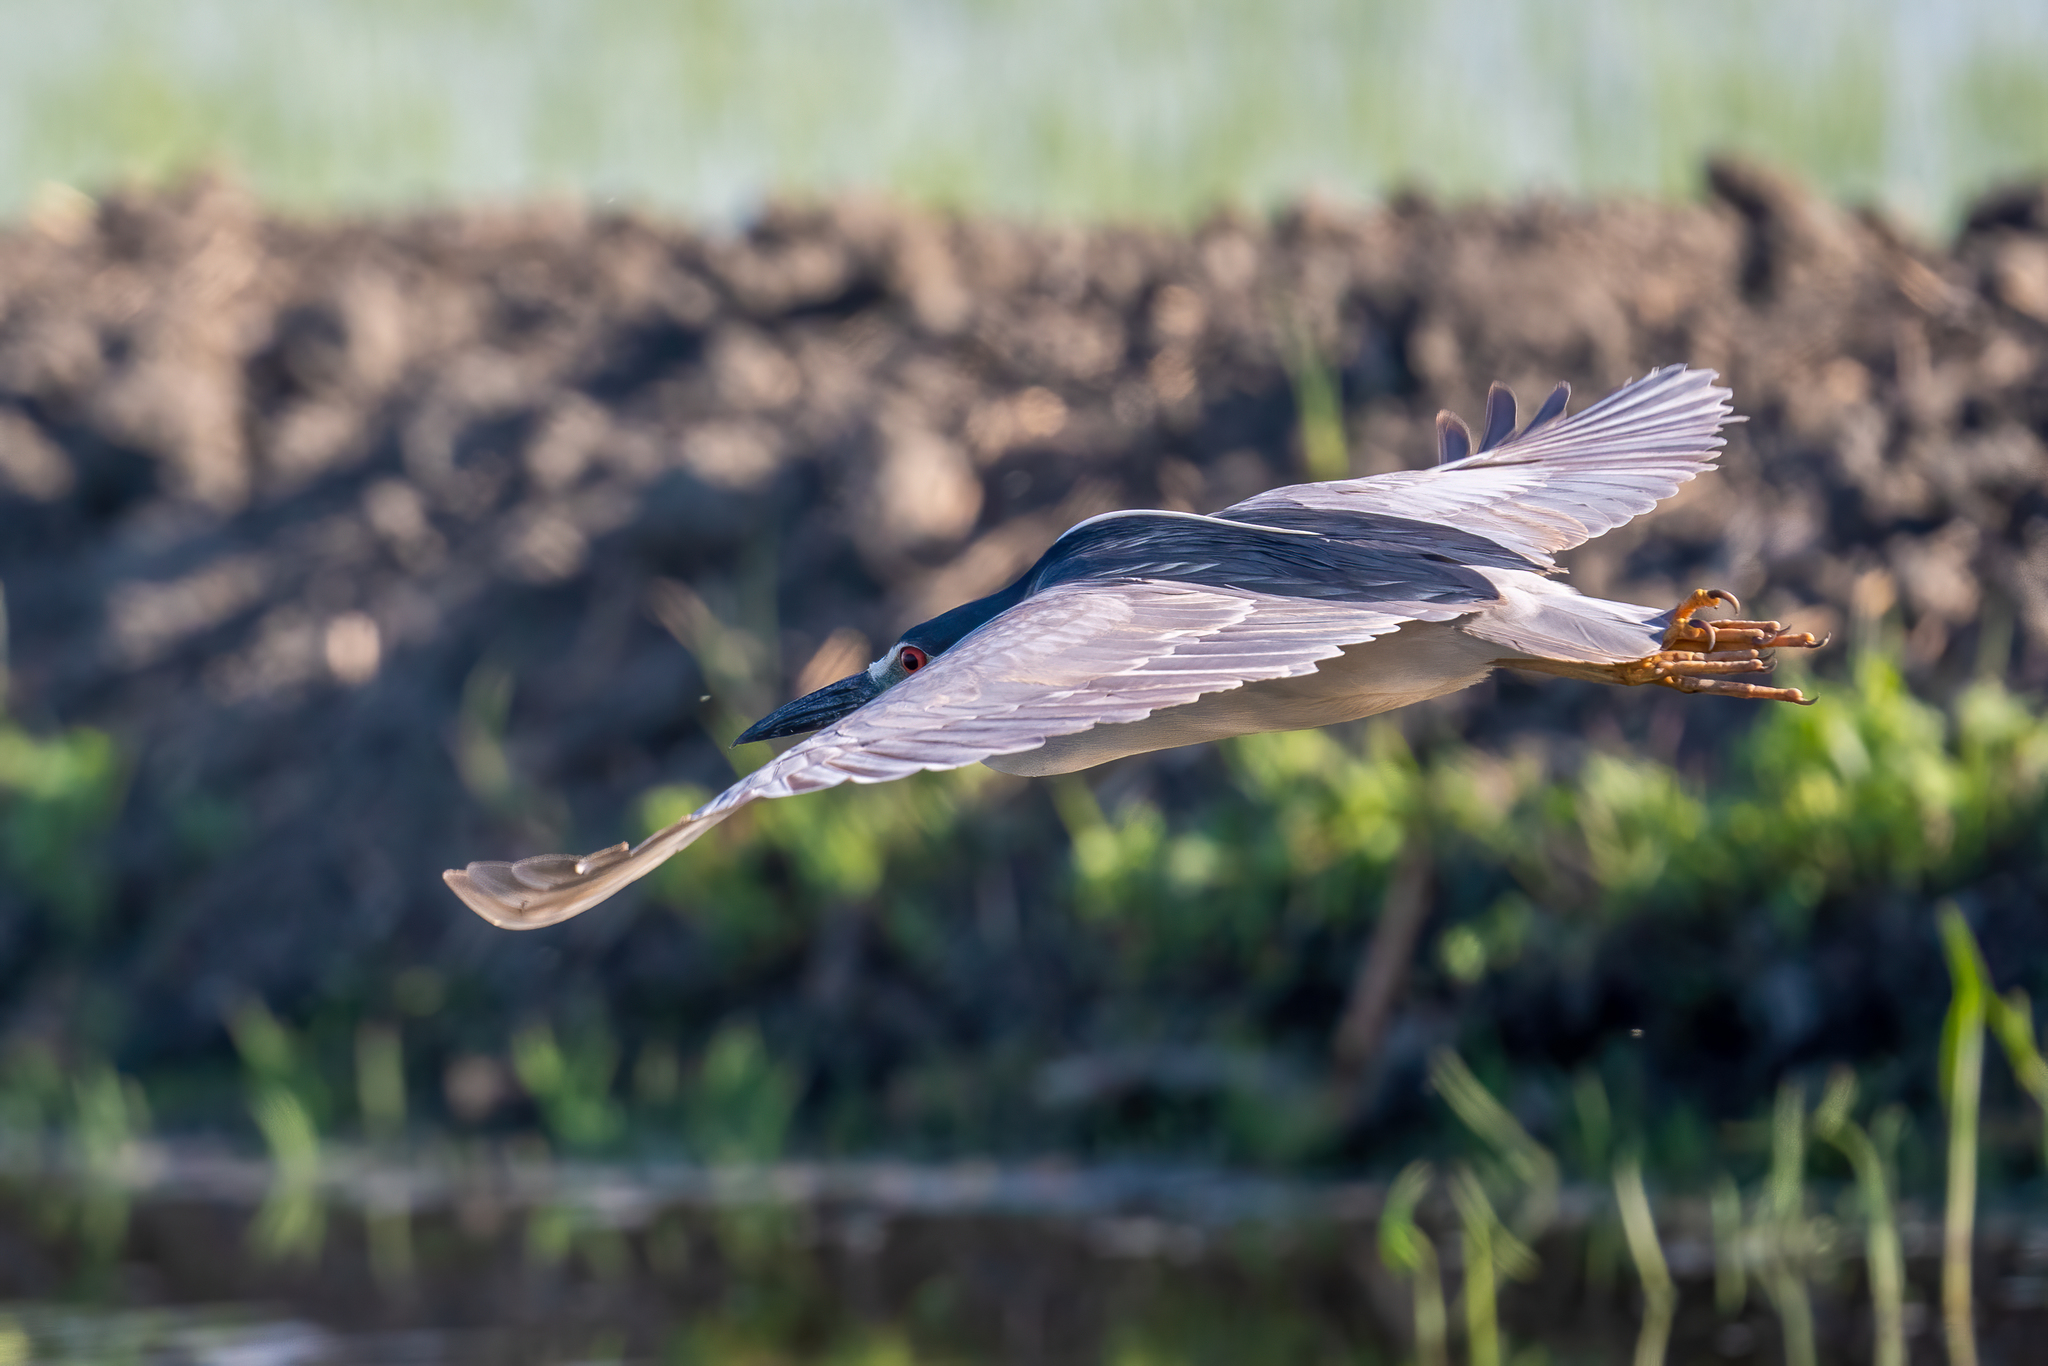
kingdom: Animalia
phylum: Chordata
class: Aves
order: Pelecaniformes
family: Ardeidae
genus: Nycticorax
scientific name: Nycticorax nycticorax
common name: Black-crowned night heron
